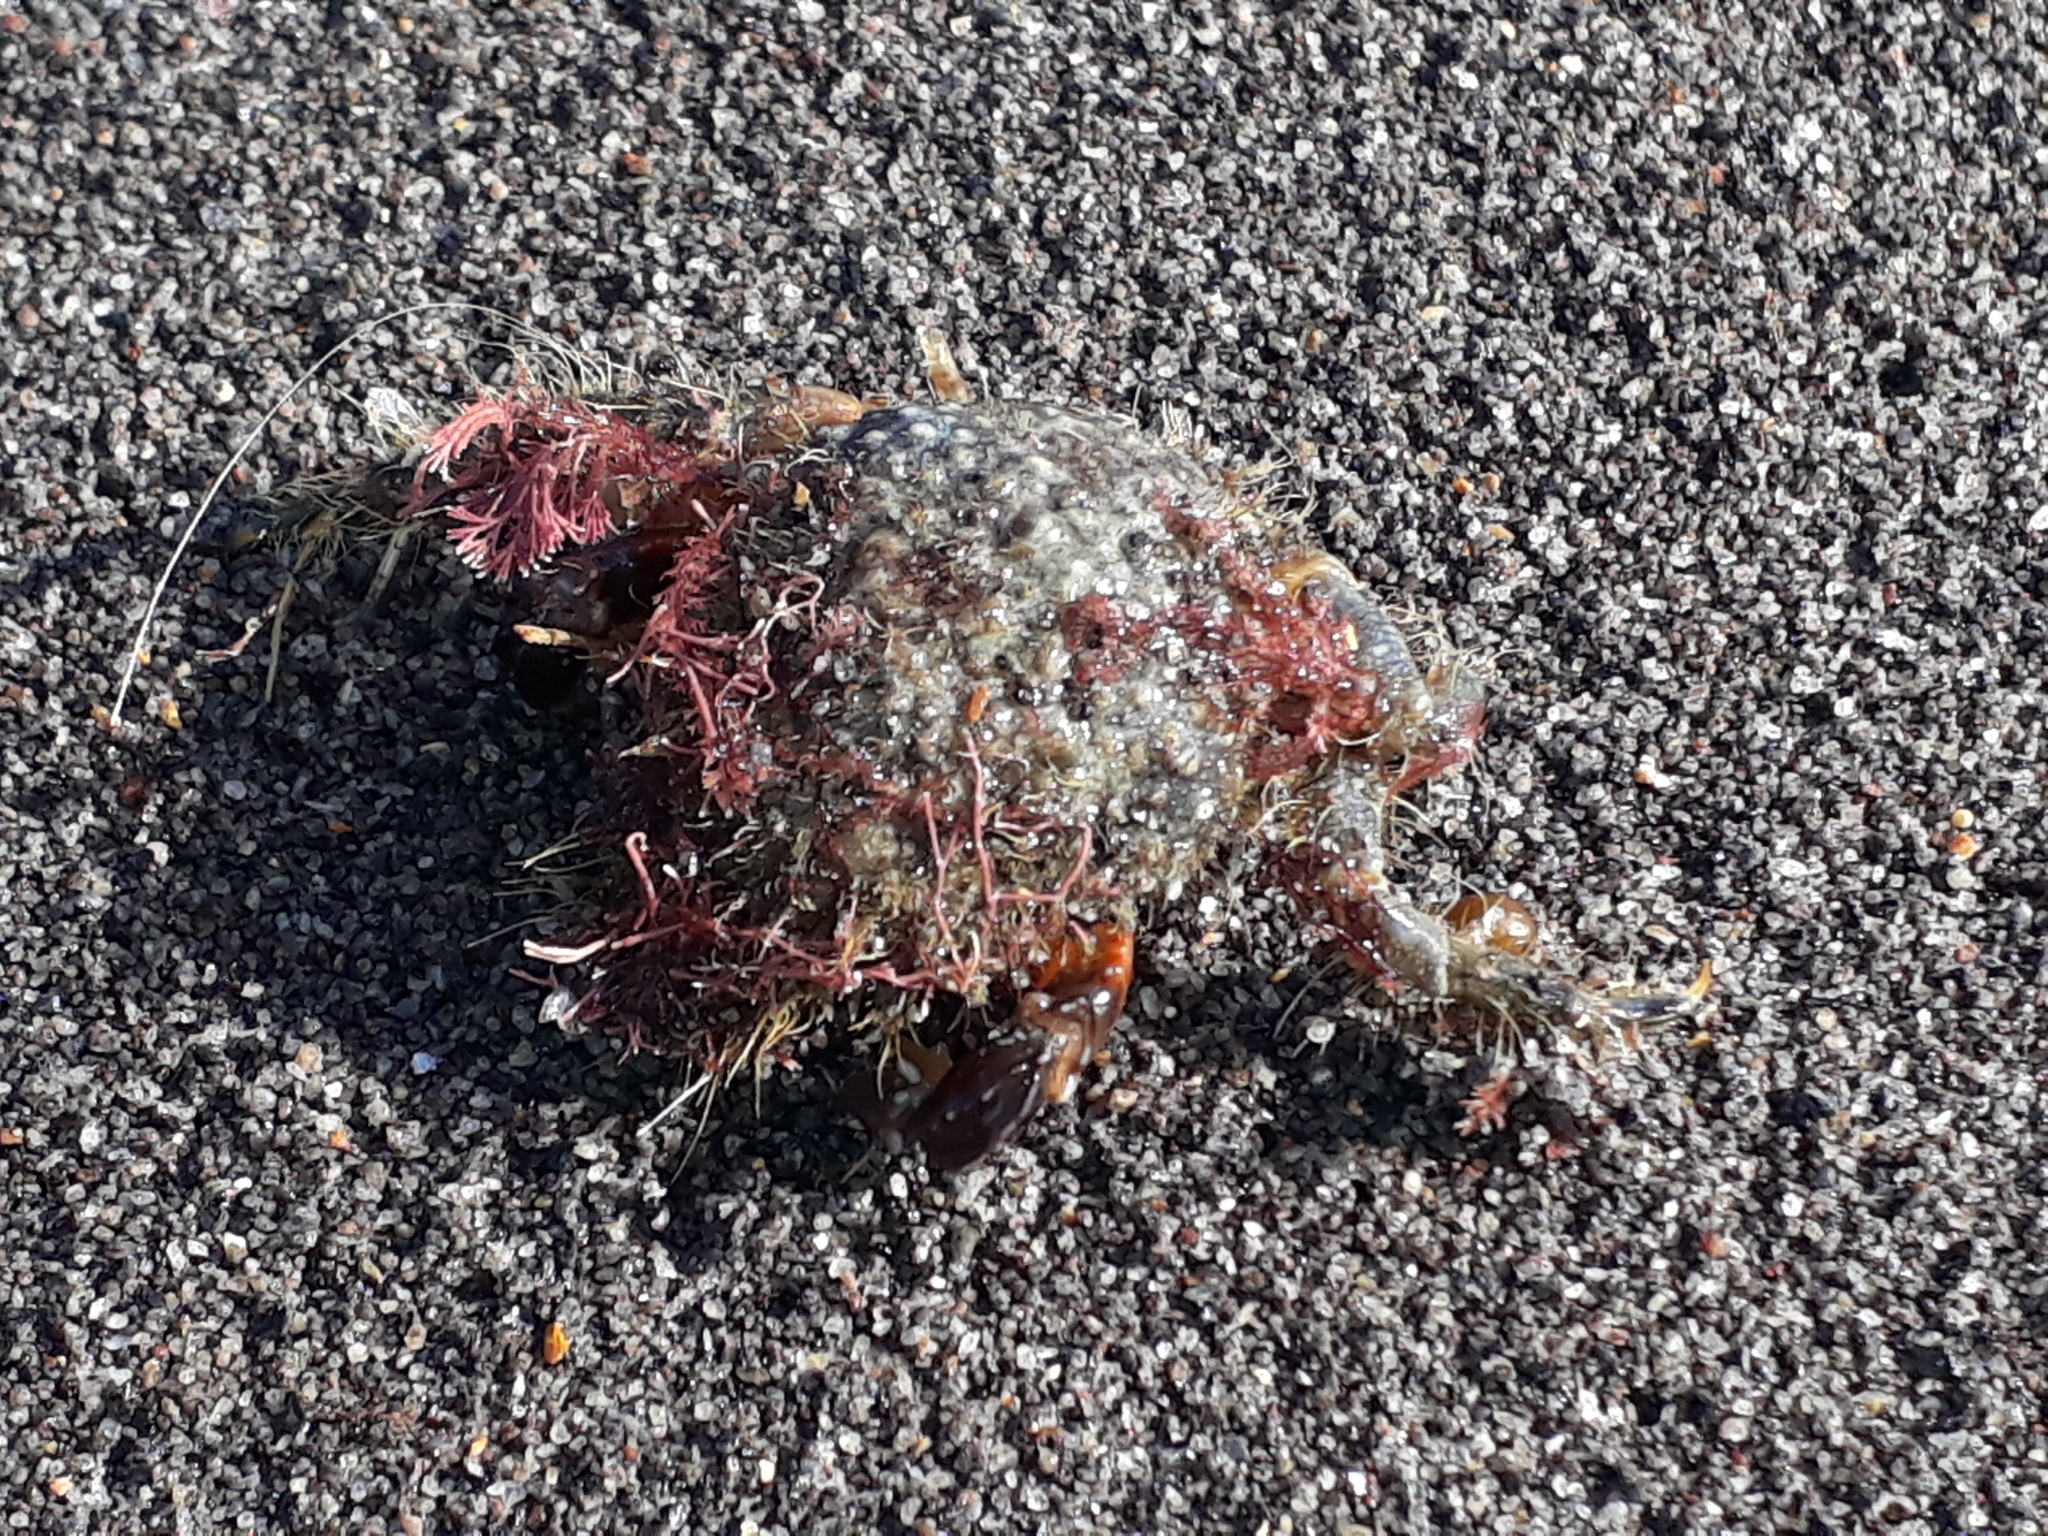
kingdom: Animalia
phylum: Arthropoda
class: Malacostraca
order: Decapoda
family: Majidae
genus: Notomithrax
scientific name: Notomithrax ursus
